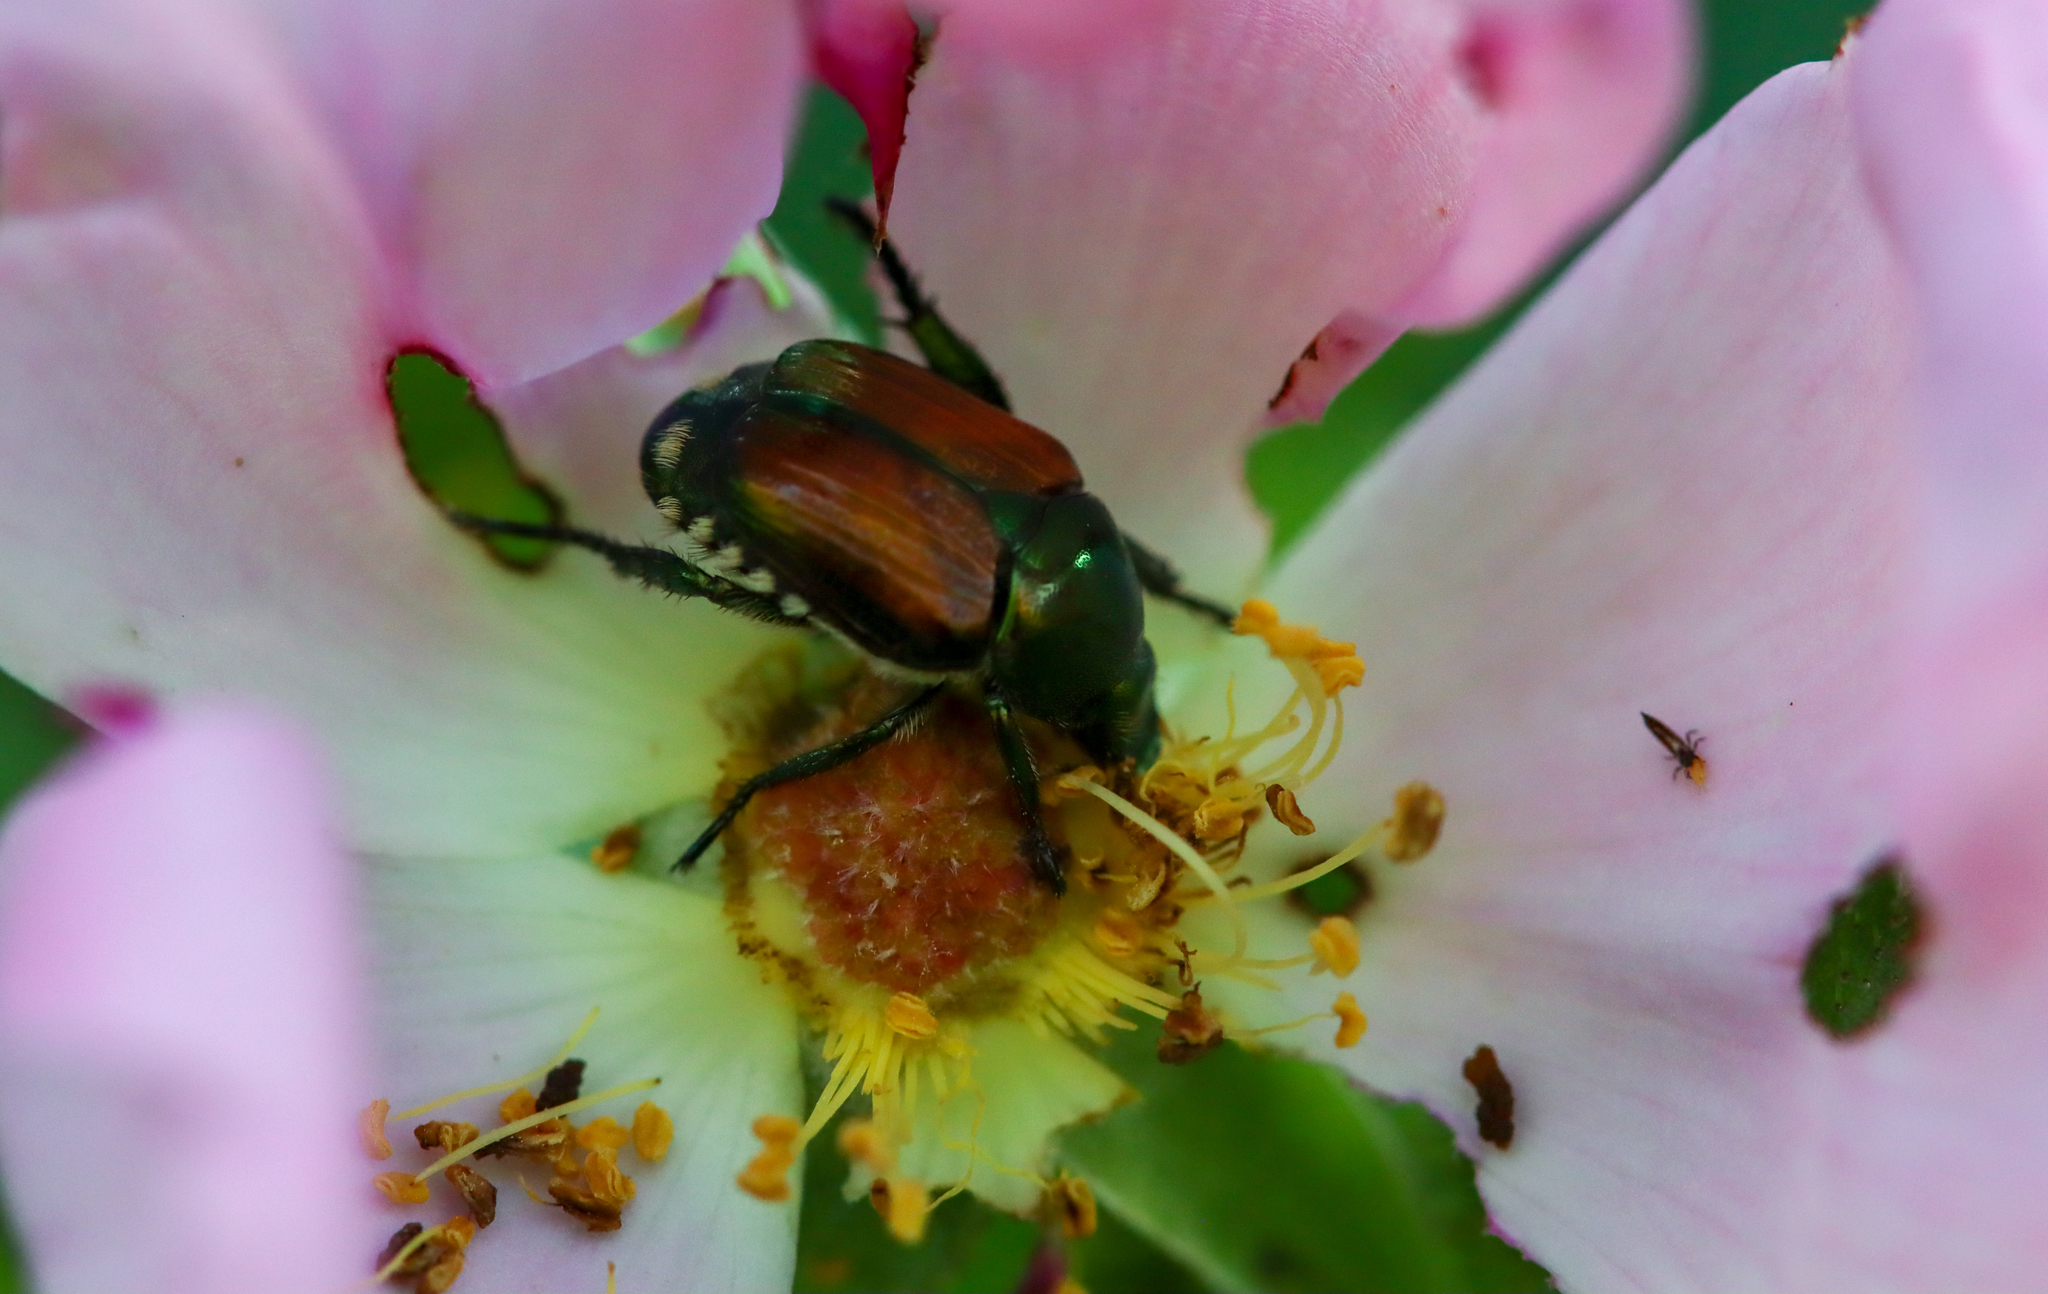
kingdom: Animalia
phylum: Arthropoda
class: Insecta
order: Coleoptera
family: Scarabaeidae
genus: Popillia
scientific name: Popillia japonica
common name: Japanese beetle
